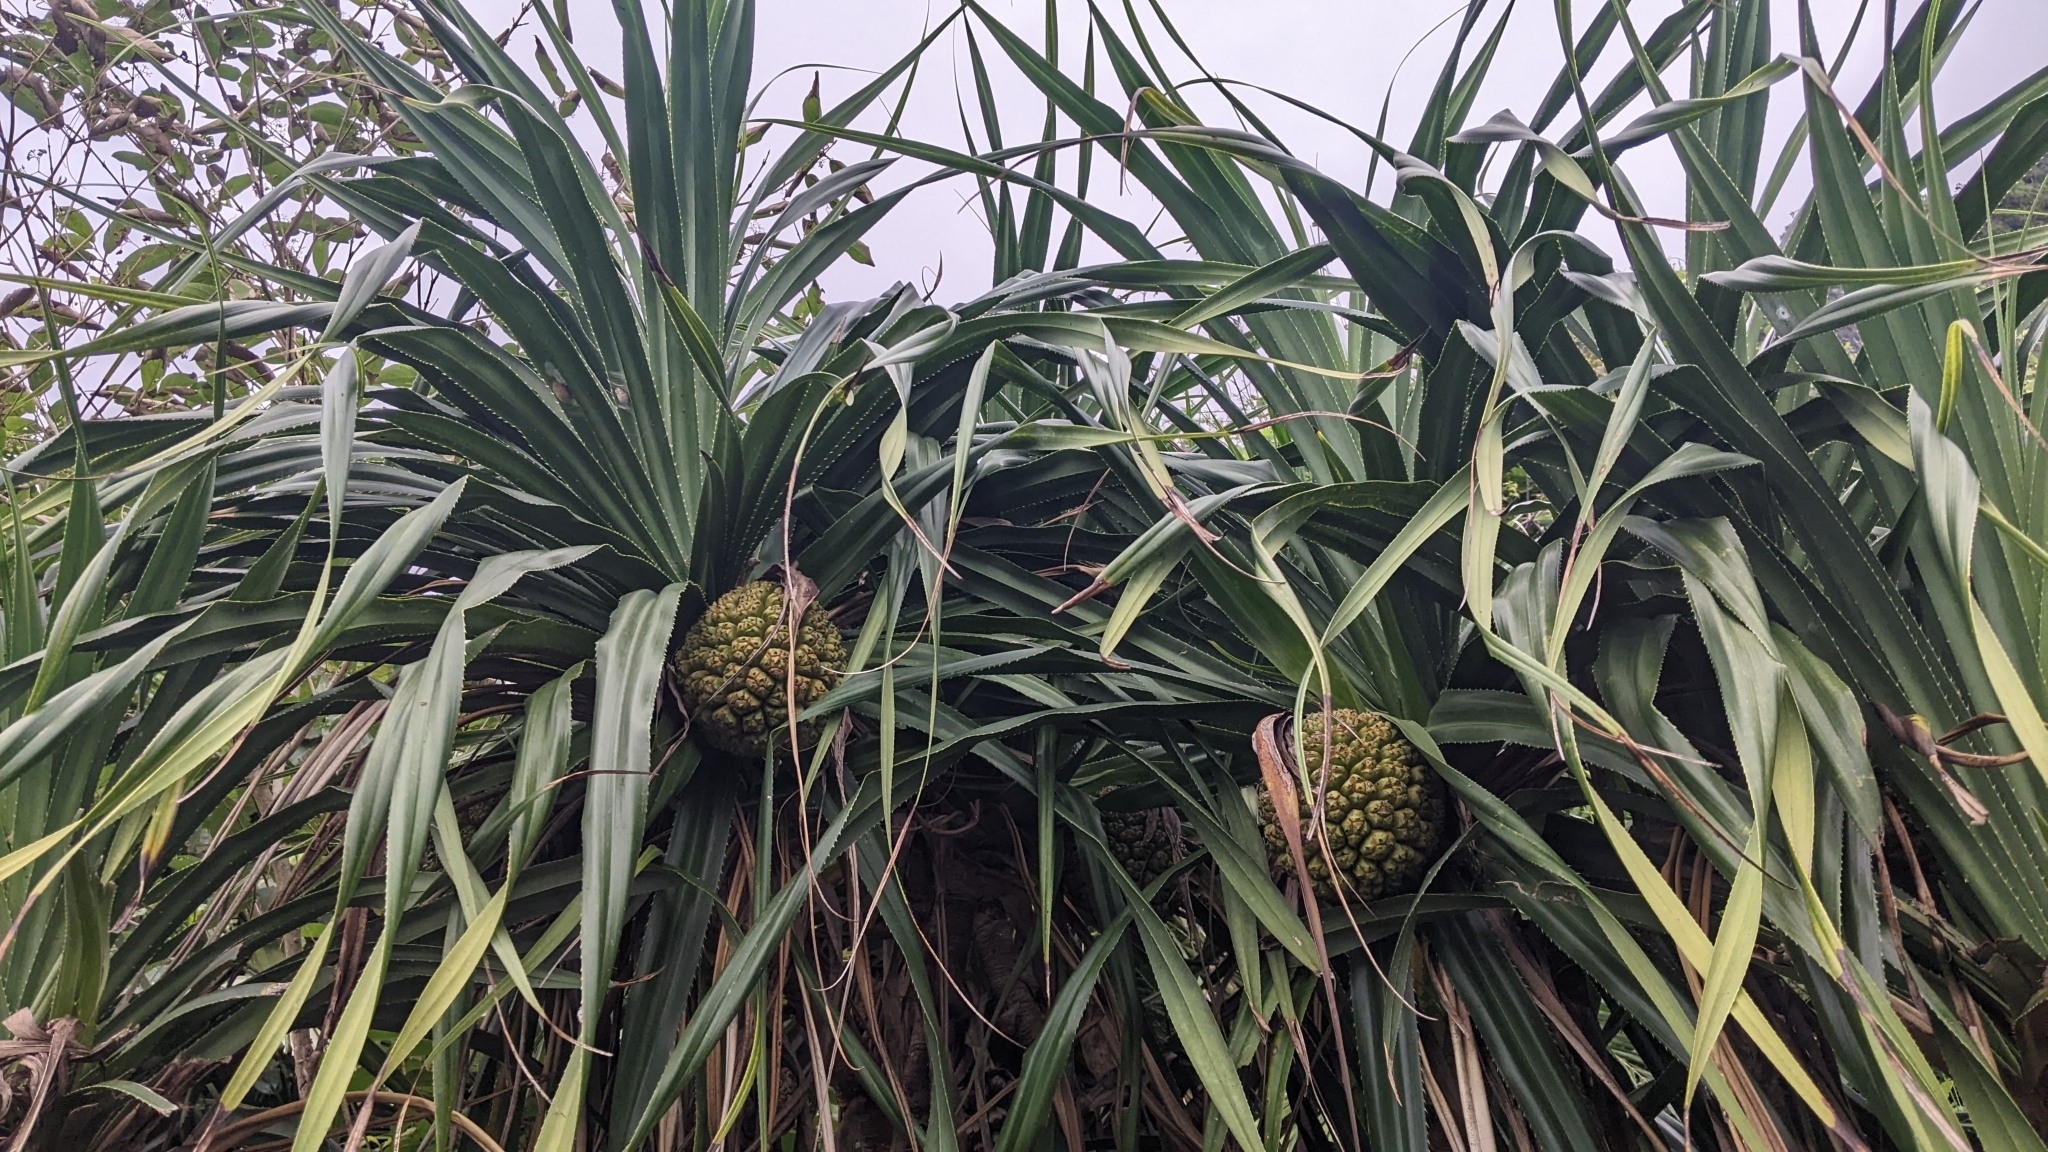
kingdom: Plantae
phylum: Tracheophyta
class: Liliopsida
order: Pandanales
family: Pandanaceae
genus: Pandanus
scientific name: Pandanus odorifer
